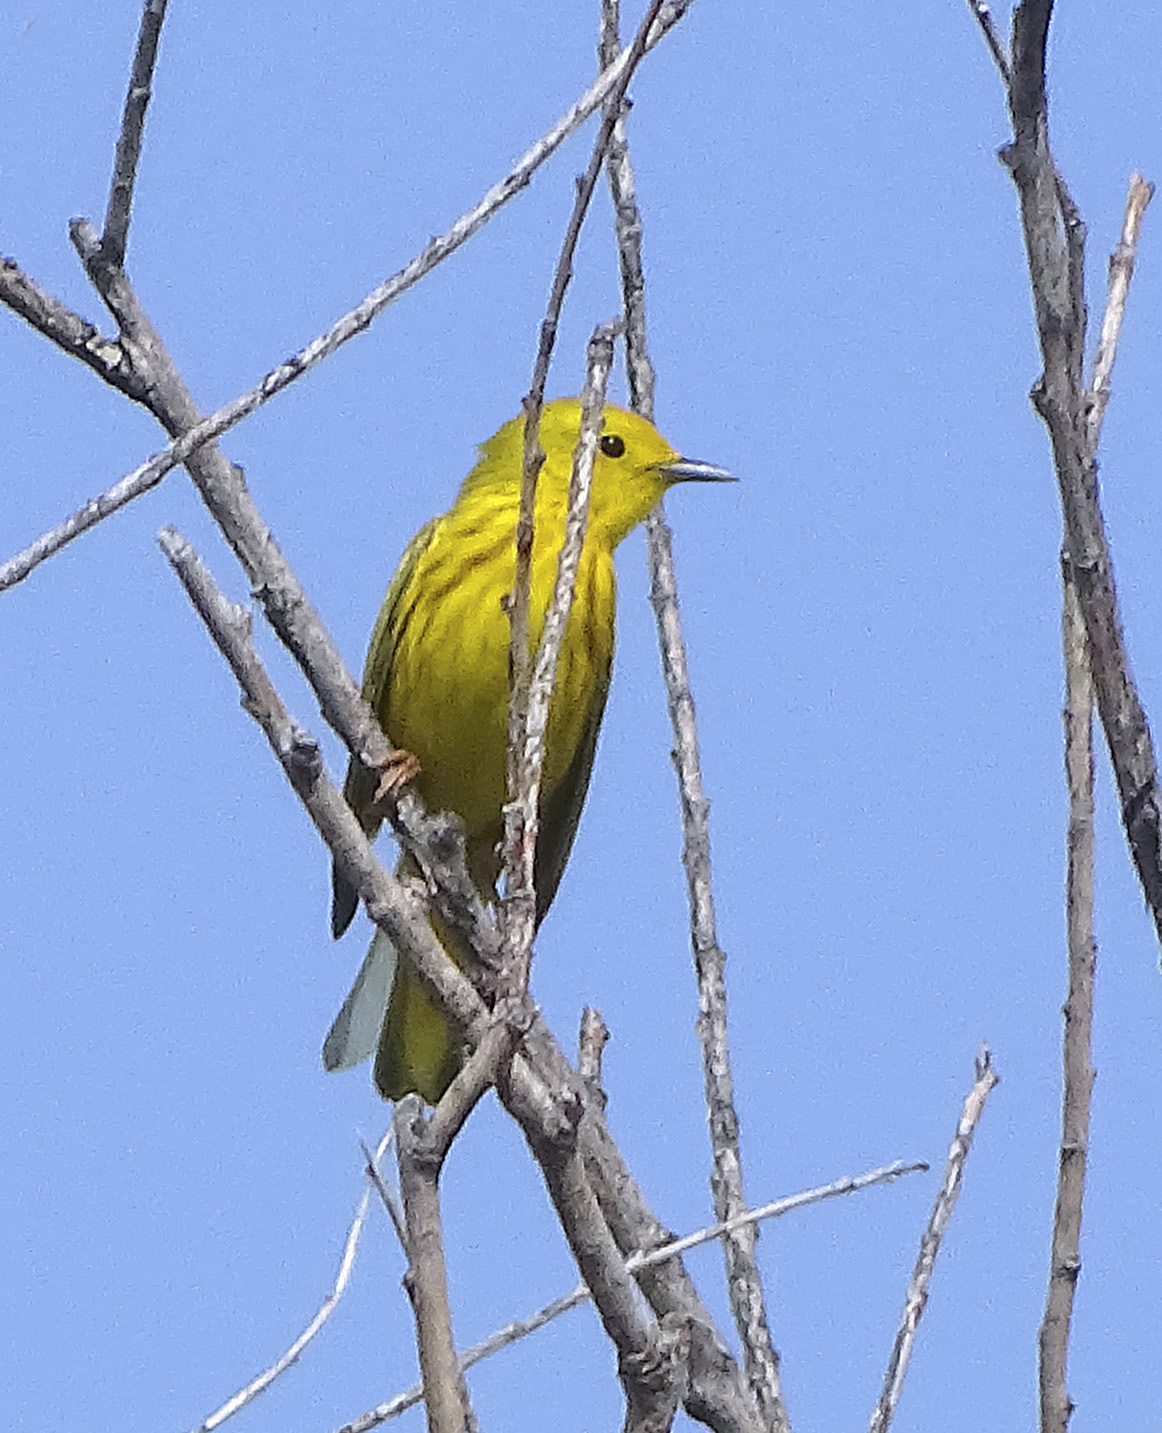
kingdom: Animalia
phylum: Chordata
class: Aves
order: Passeriformes
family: Parulidae
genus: Setophaga
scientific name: Setophaga petechia
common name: Yellow warbler
